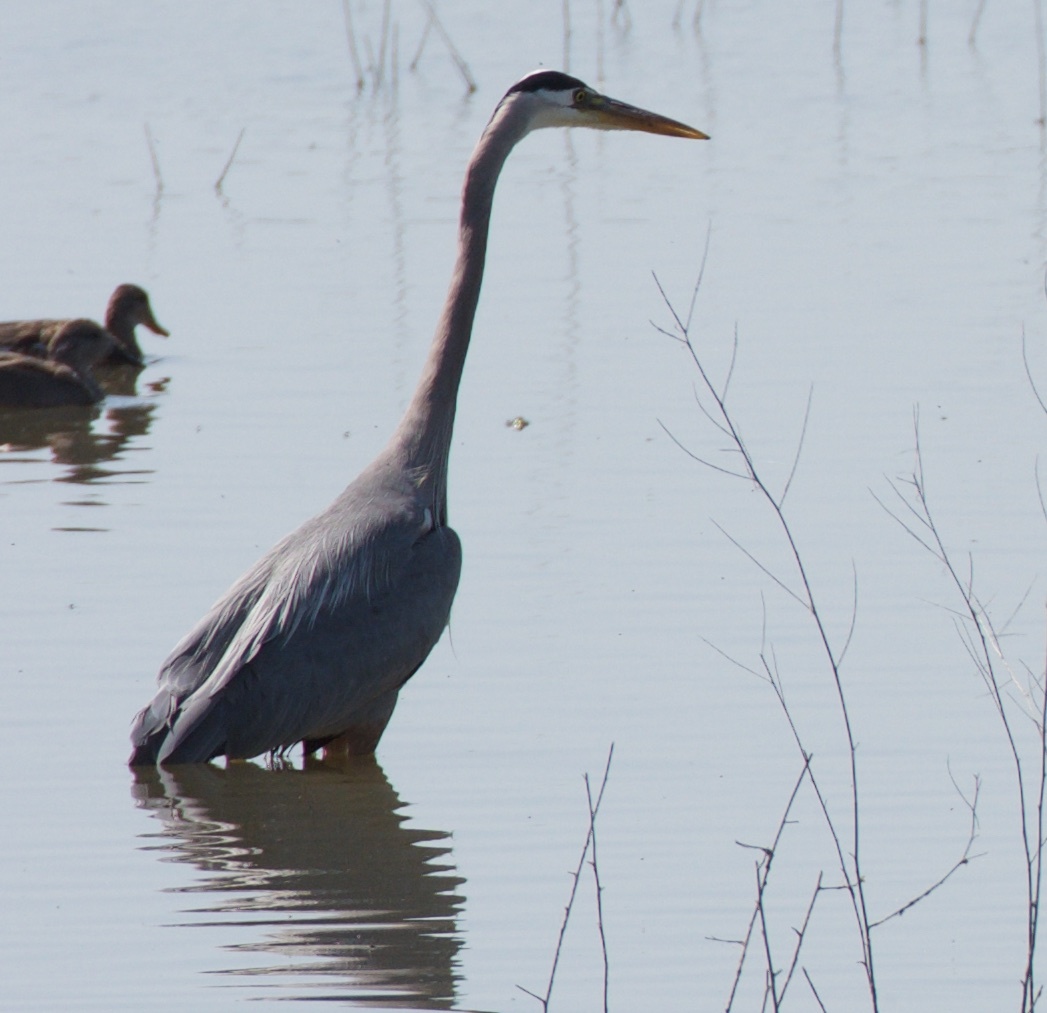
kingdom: Animalia
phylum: Chordata
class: Aves
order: Pelecaniformes
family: Ardeidae
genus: Ardea
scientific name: Ardea herodias
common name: Great blue heron
